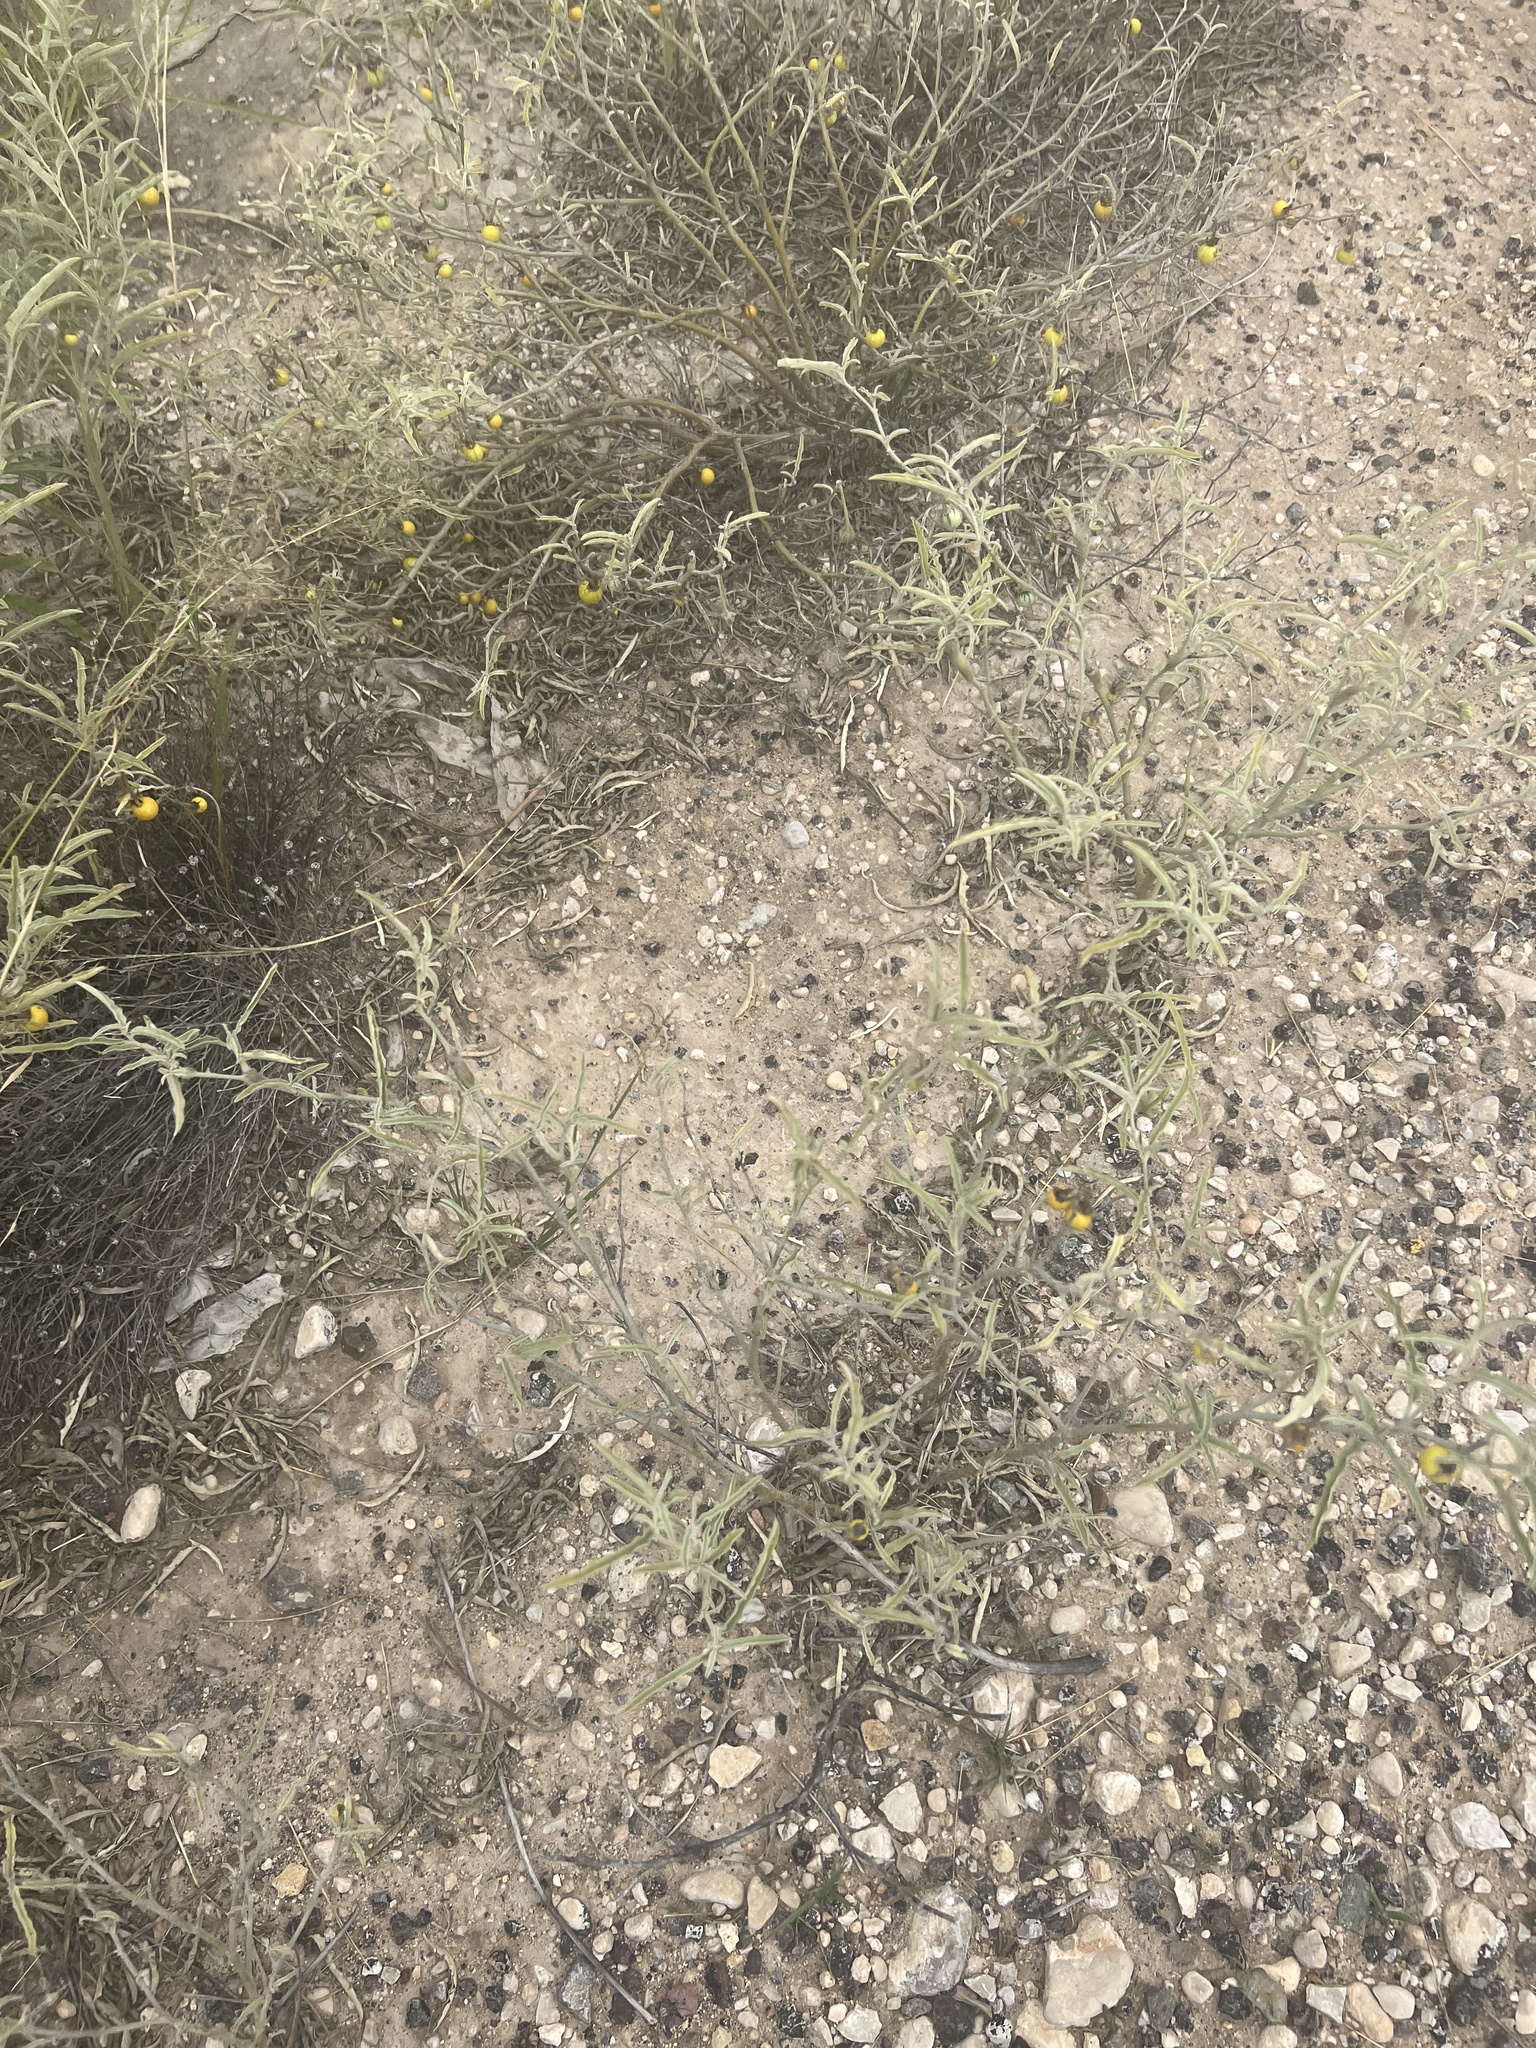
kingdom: Plantae
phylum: Tracheophyta
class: Magnoliopsida
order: Solanales
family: Solanaceae
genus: Solanum
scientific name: Solanum elaeagnifolium
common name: Silverleaf nightshade
